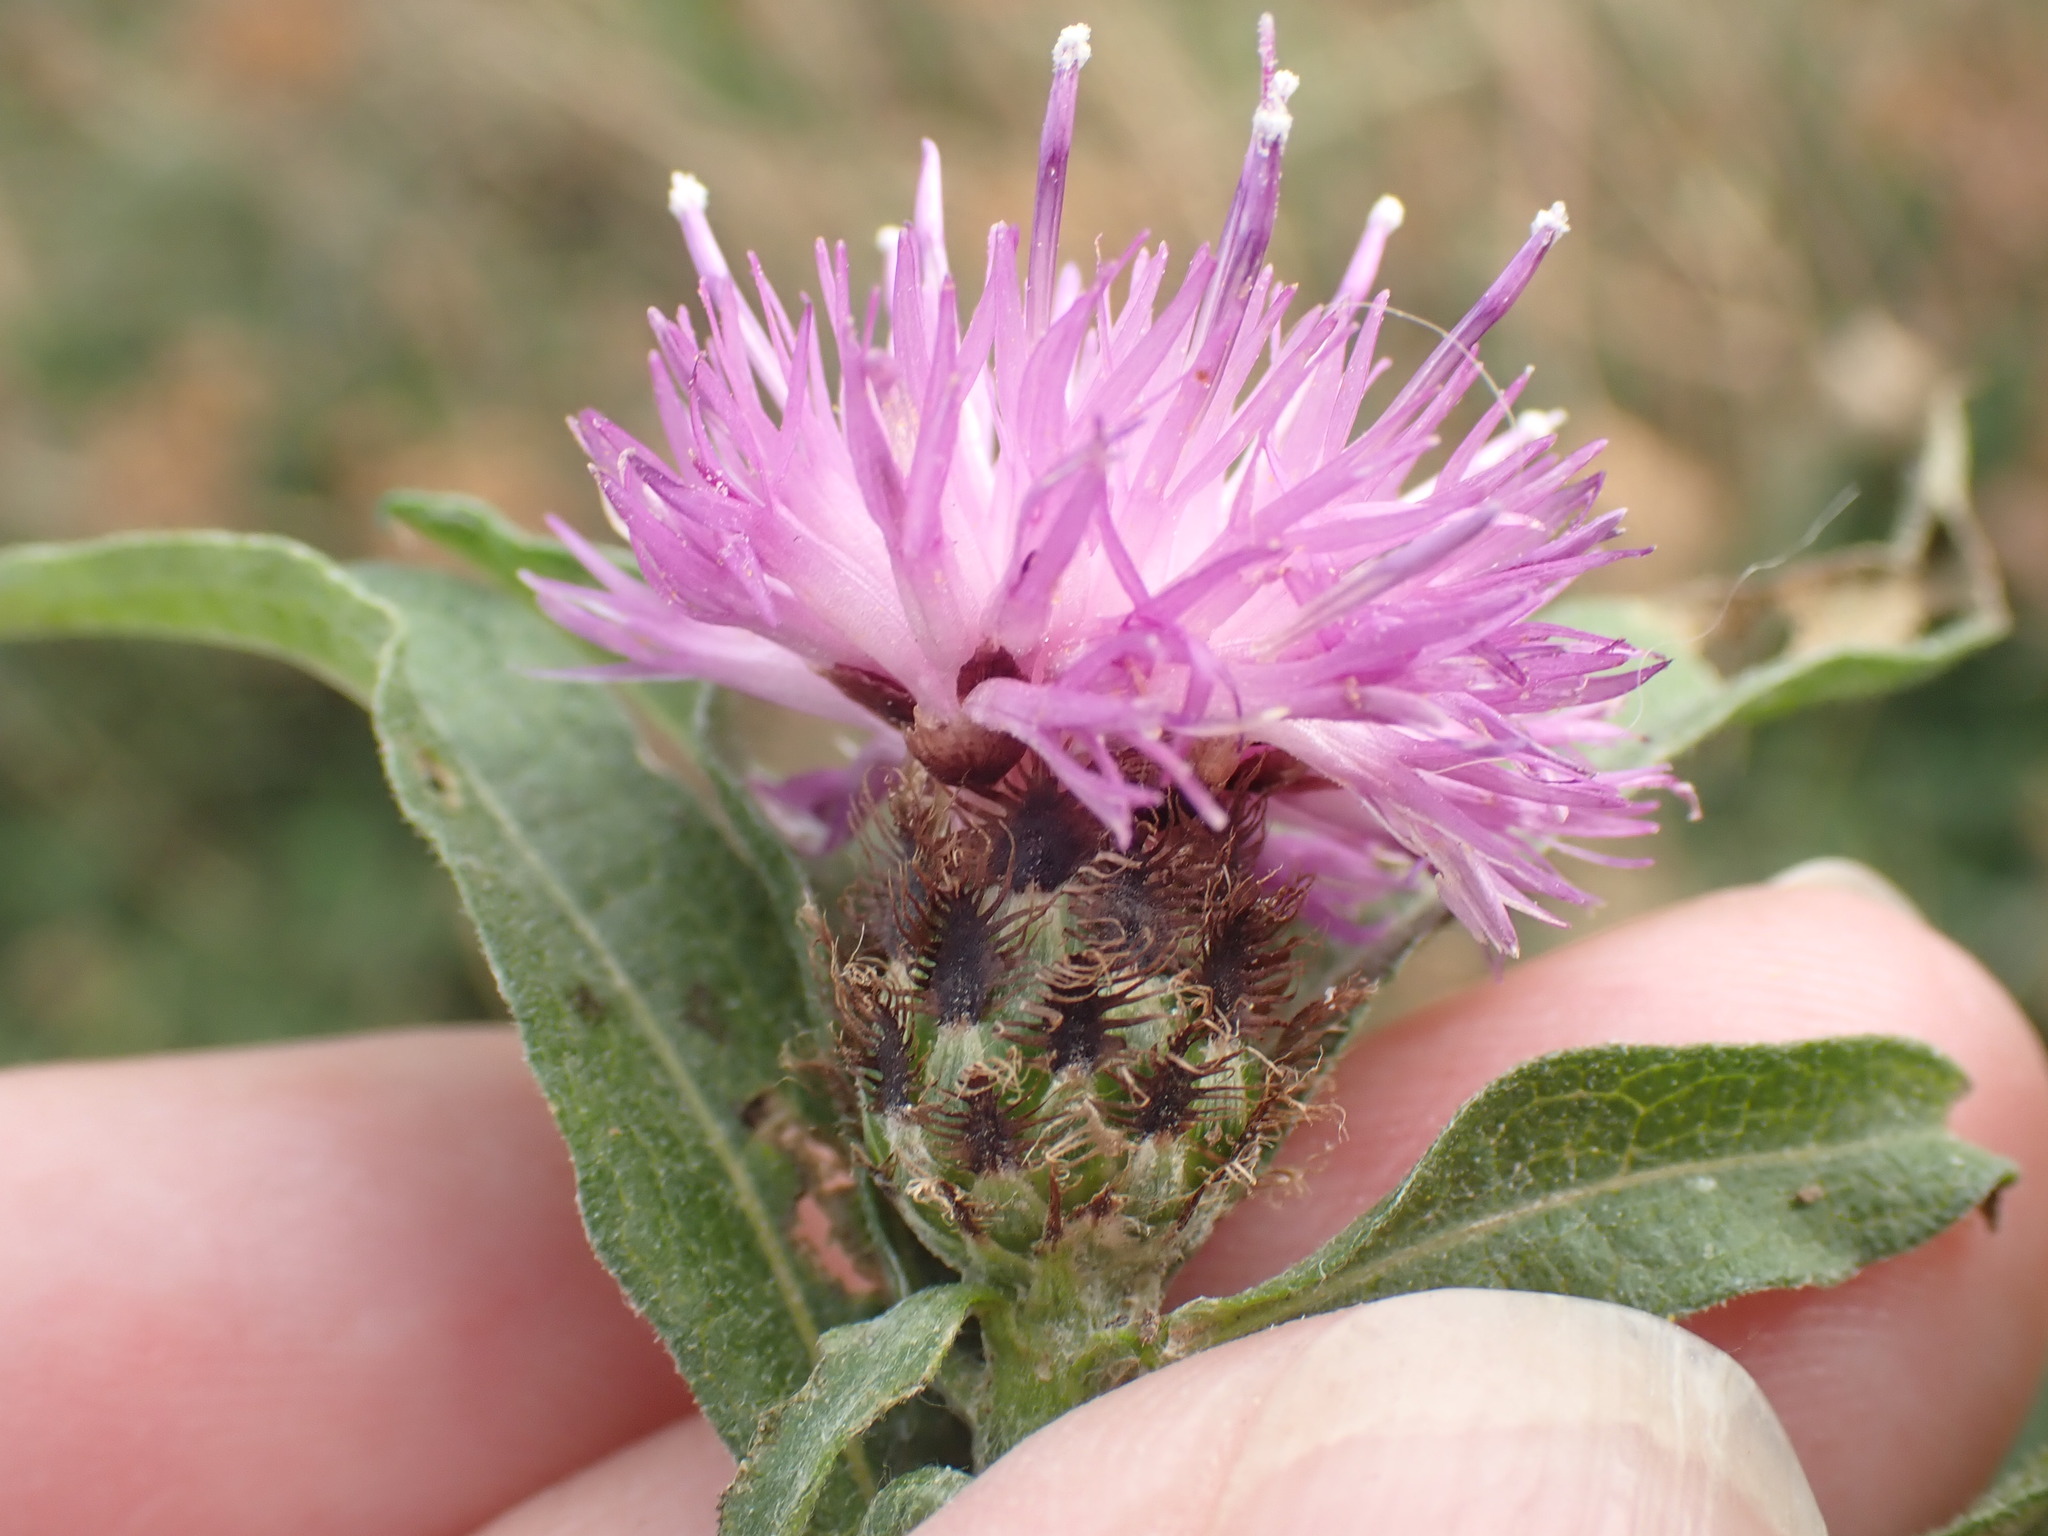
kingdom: Plantae
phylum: Tracheophyta
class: Magnoliopsida
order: Asterales
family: Asteraceae
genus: Centaurea
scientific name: Centaurea nigra
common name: Lesser knapweed
